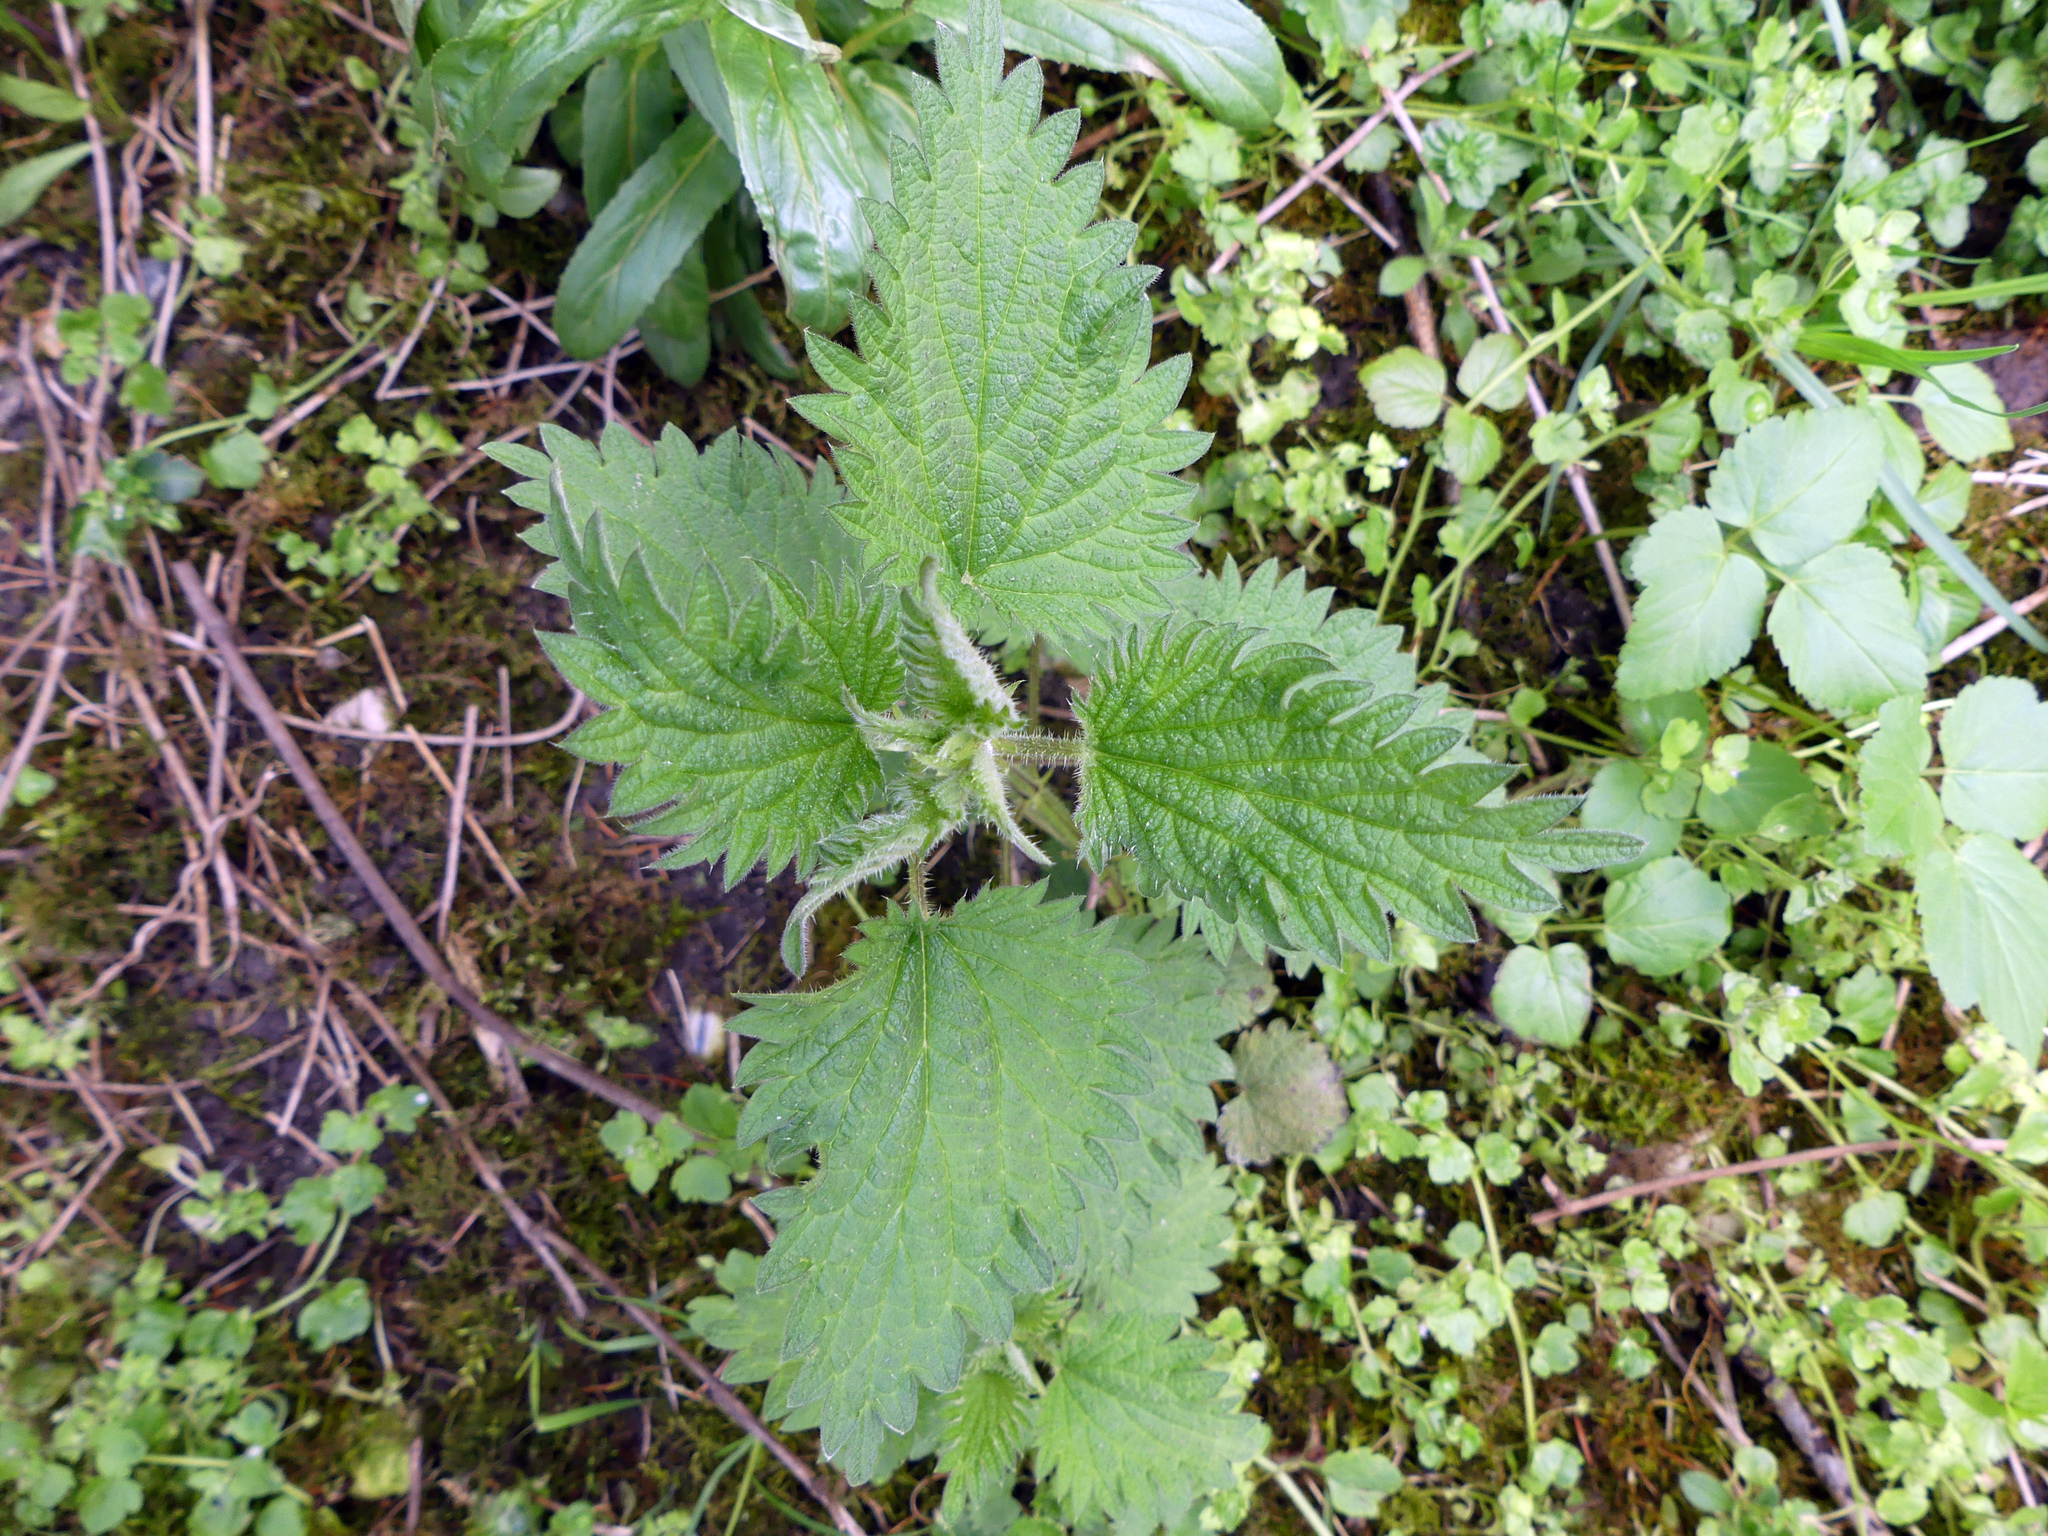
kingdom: Plantae
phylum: Tracheophyta
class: Magnoliopsida
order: Rosales
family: Urticaceae
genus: Urtica
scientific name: Urtica dioica
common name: Common nettle
